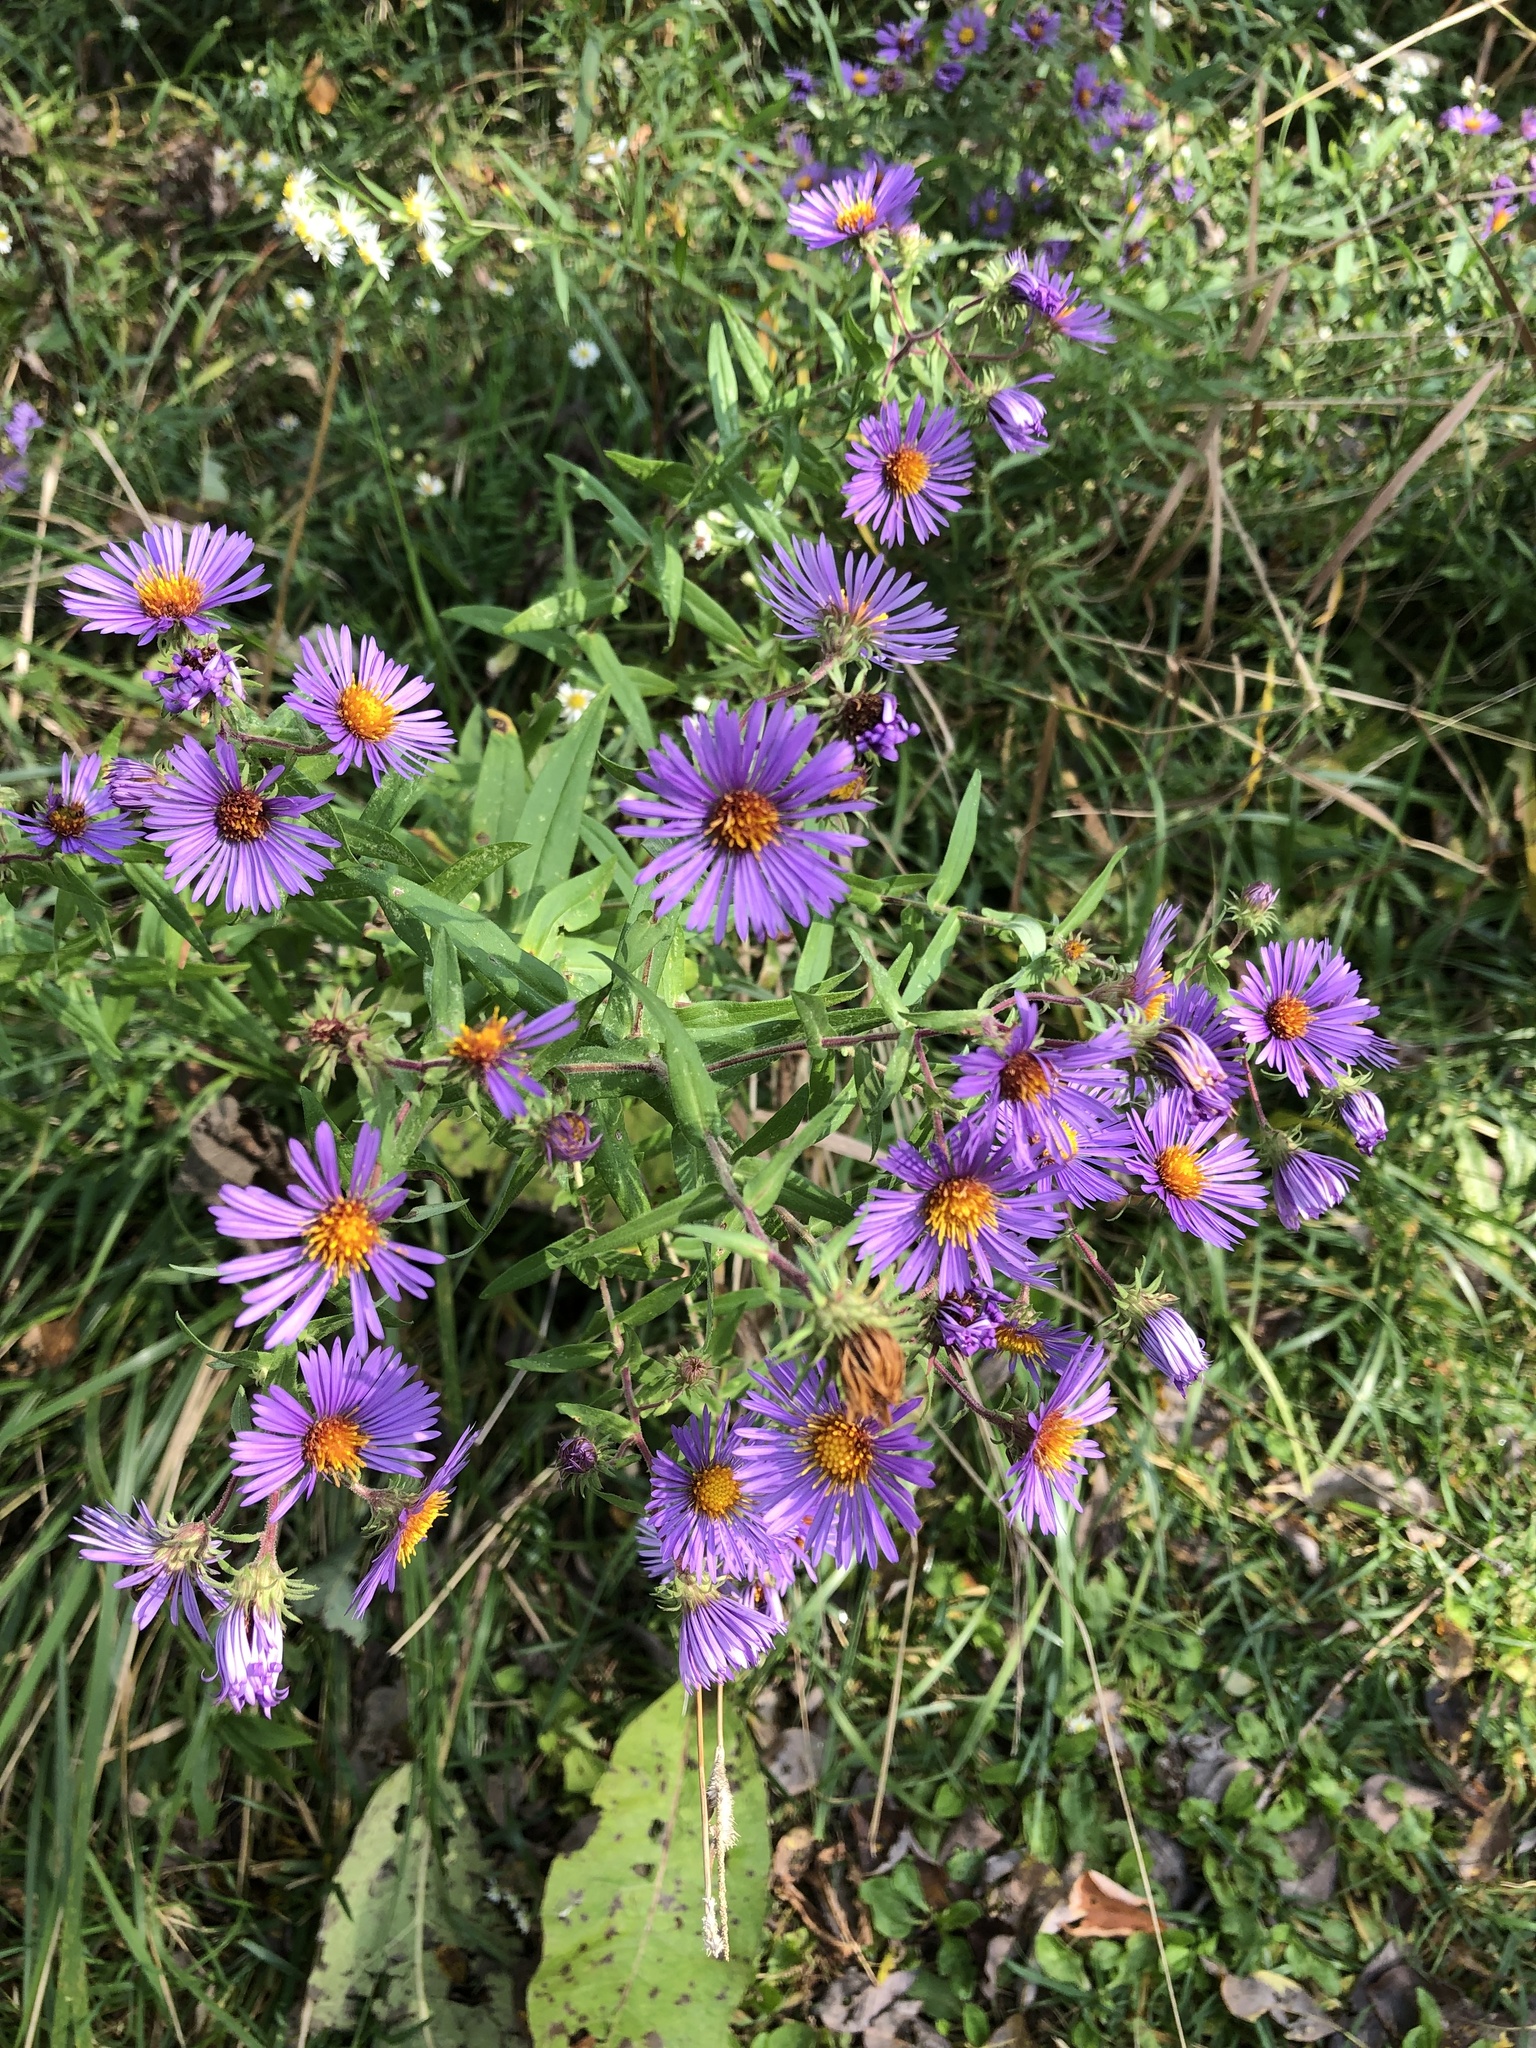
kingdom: Plantae
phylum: Tracheophyta
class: Magnoliopsida
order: Asterales
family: Asteraceae
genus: Symphyotrichum
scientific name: Symphyotrichum novae-angliae
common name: Michaelmas daisy
